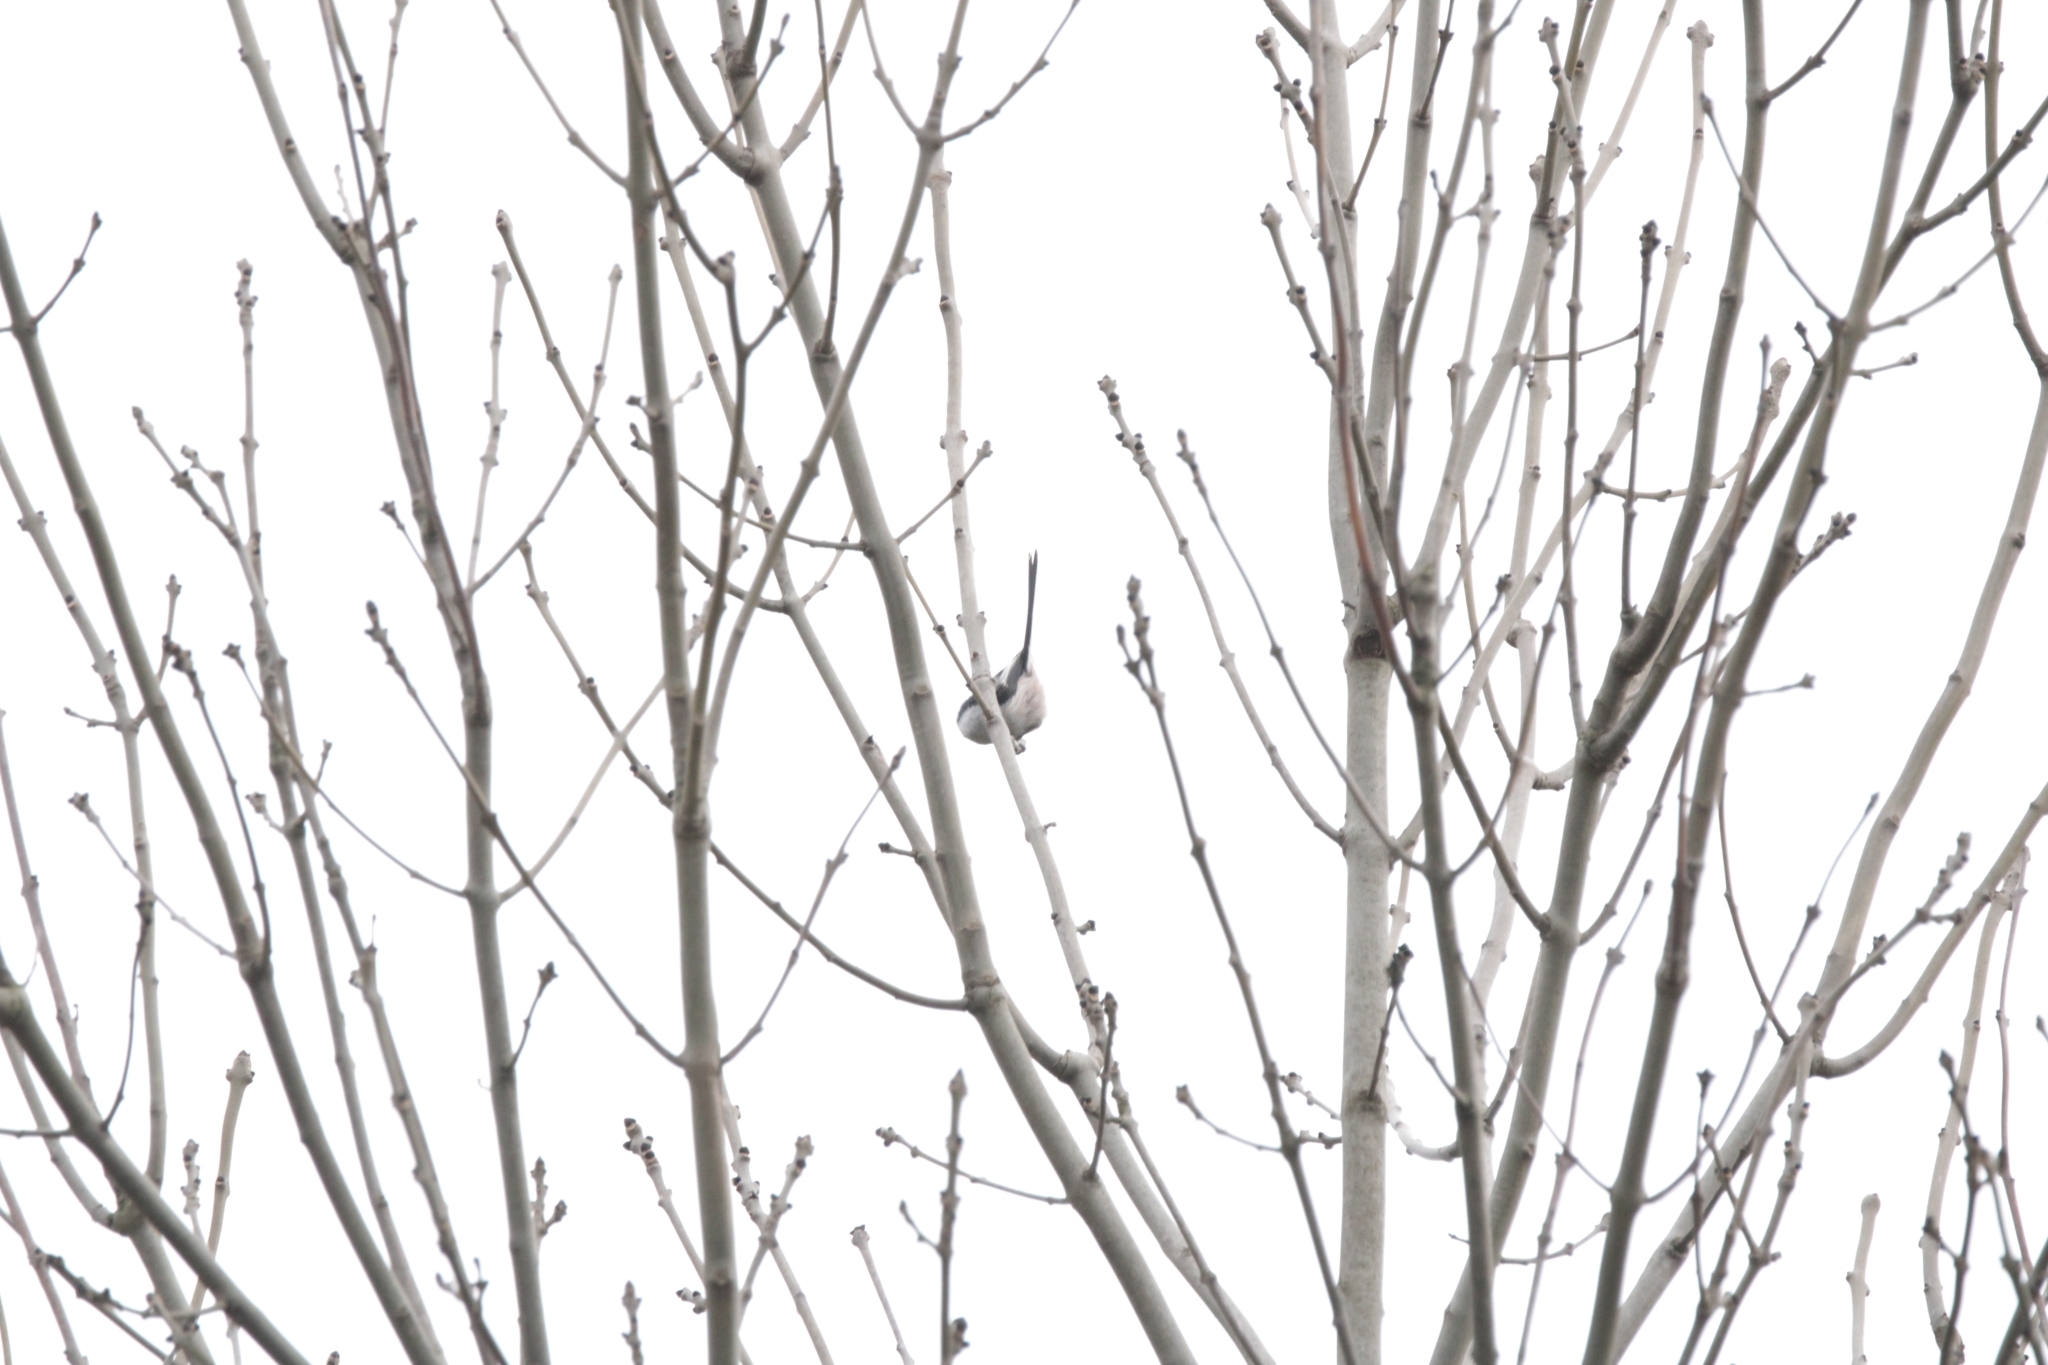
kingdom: Animalia
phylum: Chordata
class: Aves
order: Passeriformes
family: Aegithalidae
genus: Aegithalos
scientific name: Aegithalos caudatus
